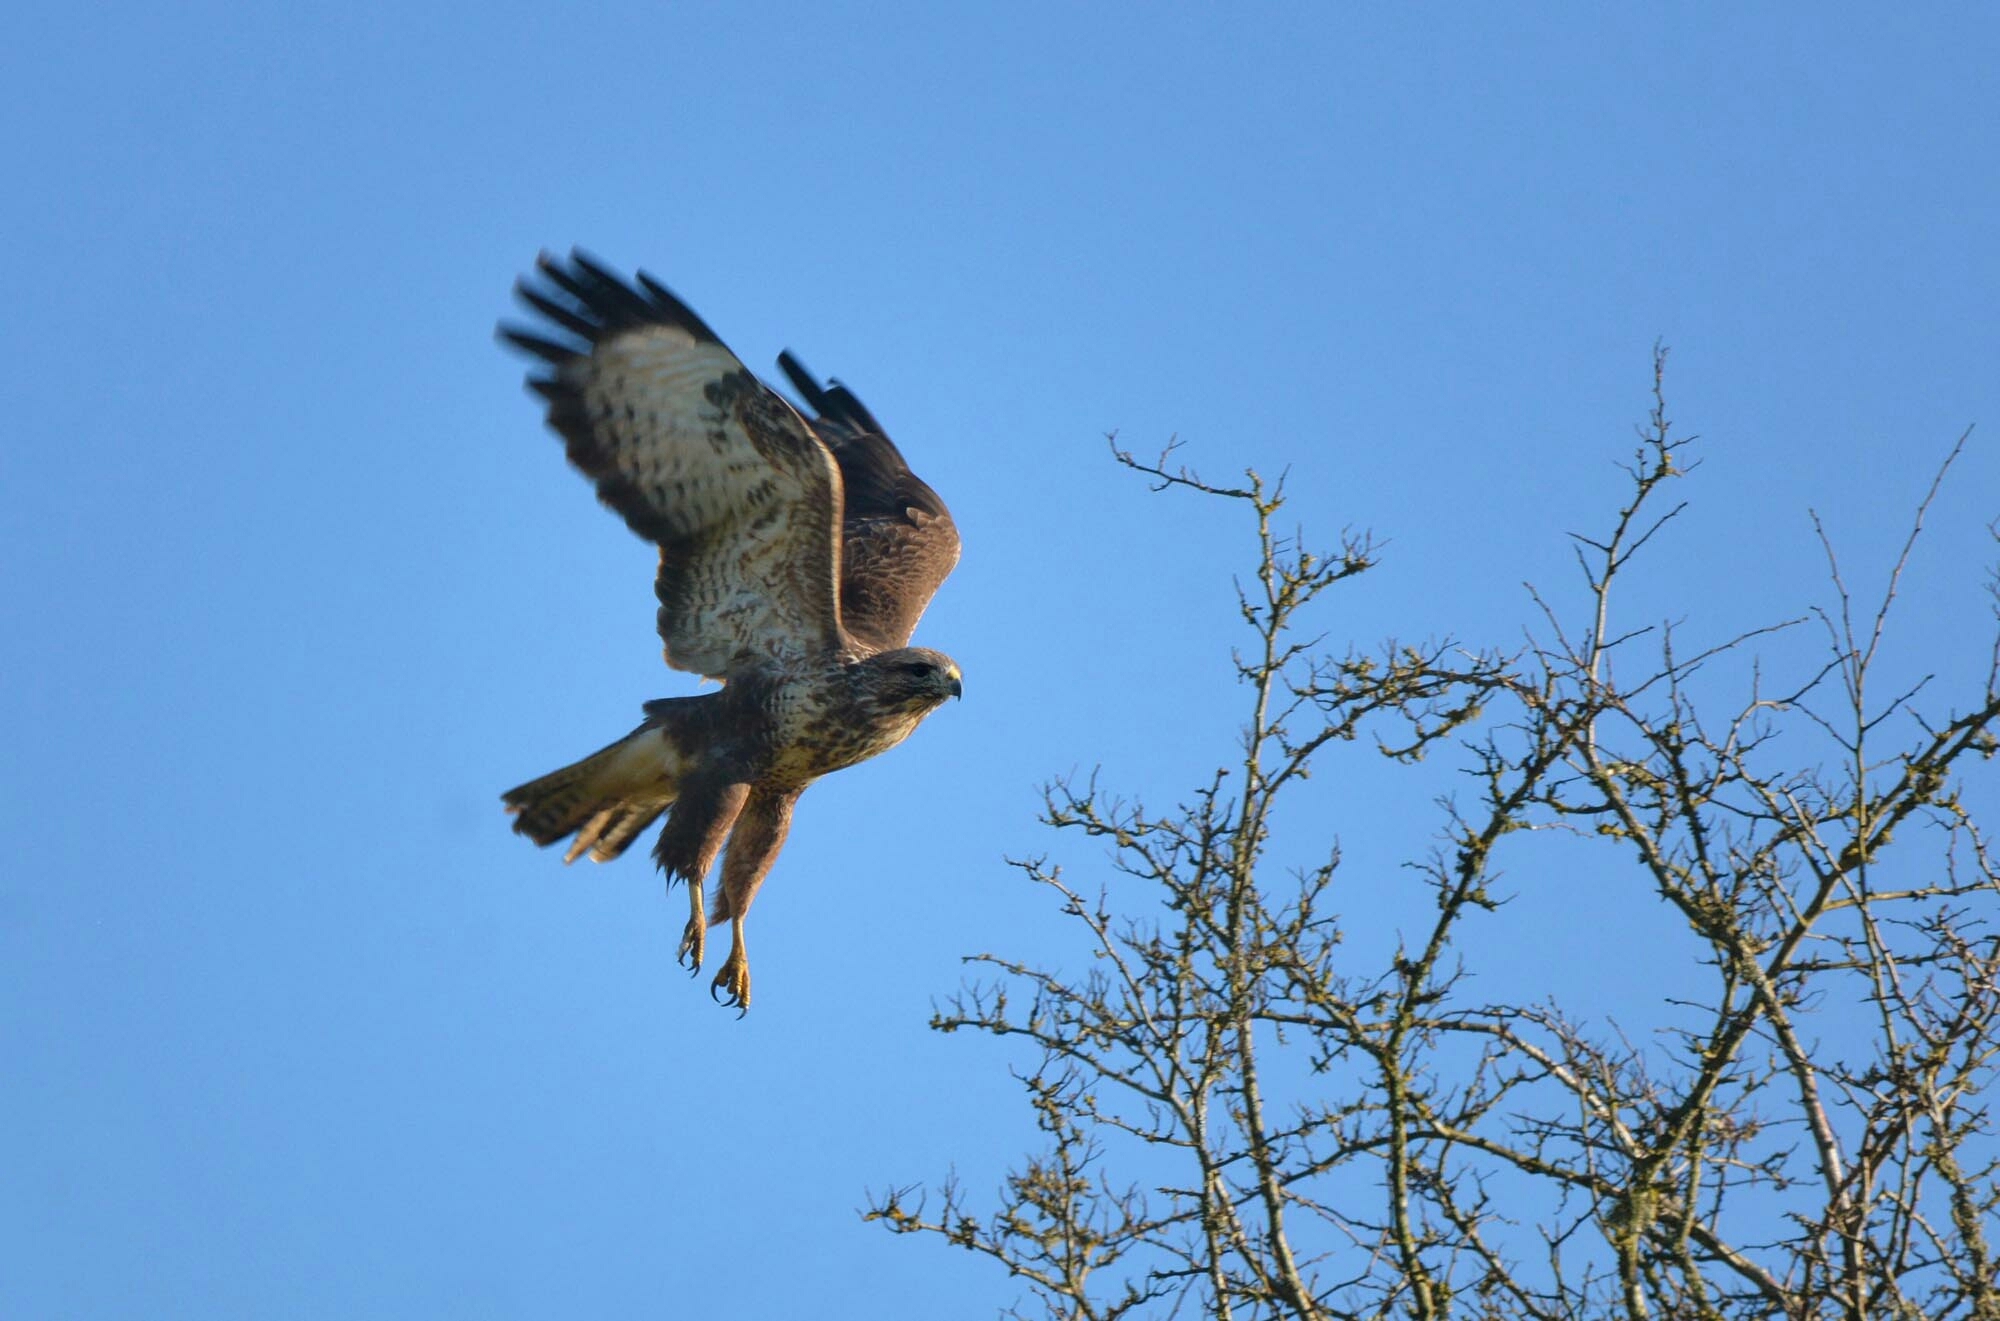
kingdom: Animalia
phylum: Chordata
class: Aves
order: Accipitriformes
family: Accipitridae
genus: Buteo
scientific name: Buteo buteo
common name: Common buzzard
